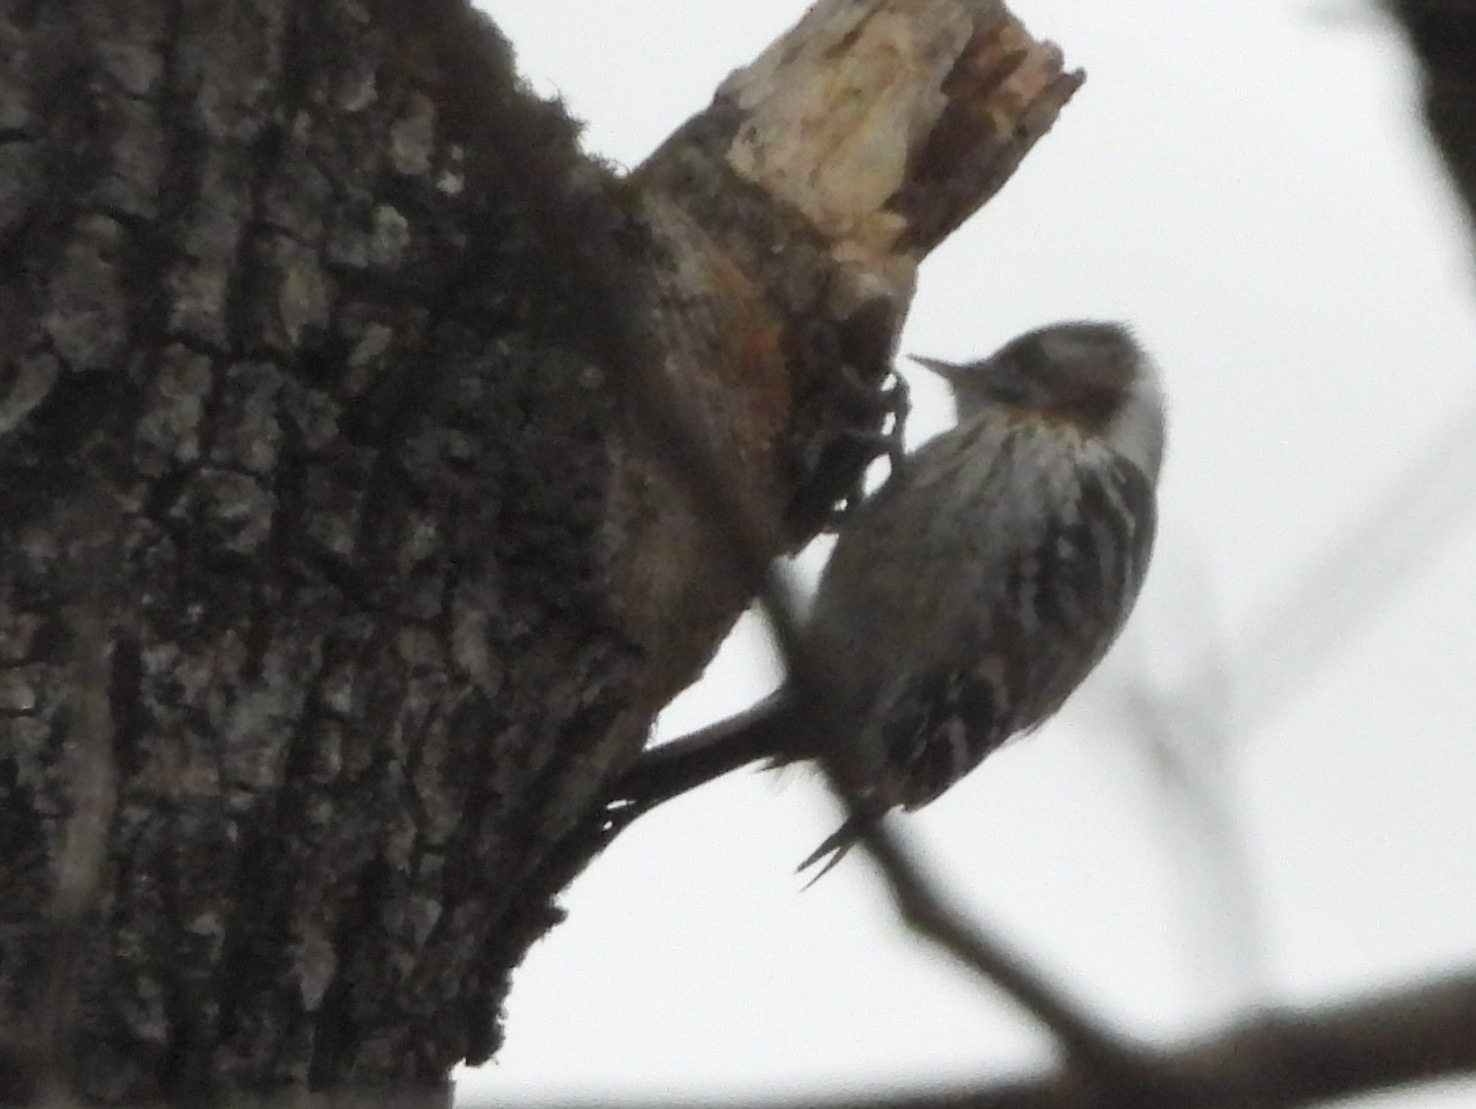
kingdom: Animalia
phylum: Chordata
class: Aves
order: Piciformes
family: Picidae
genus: Yungipicus
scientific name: Yungipicus kizuki
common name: Japanese pygmy woodpecker
